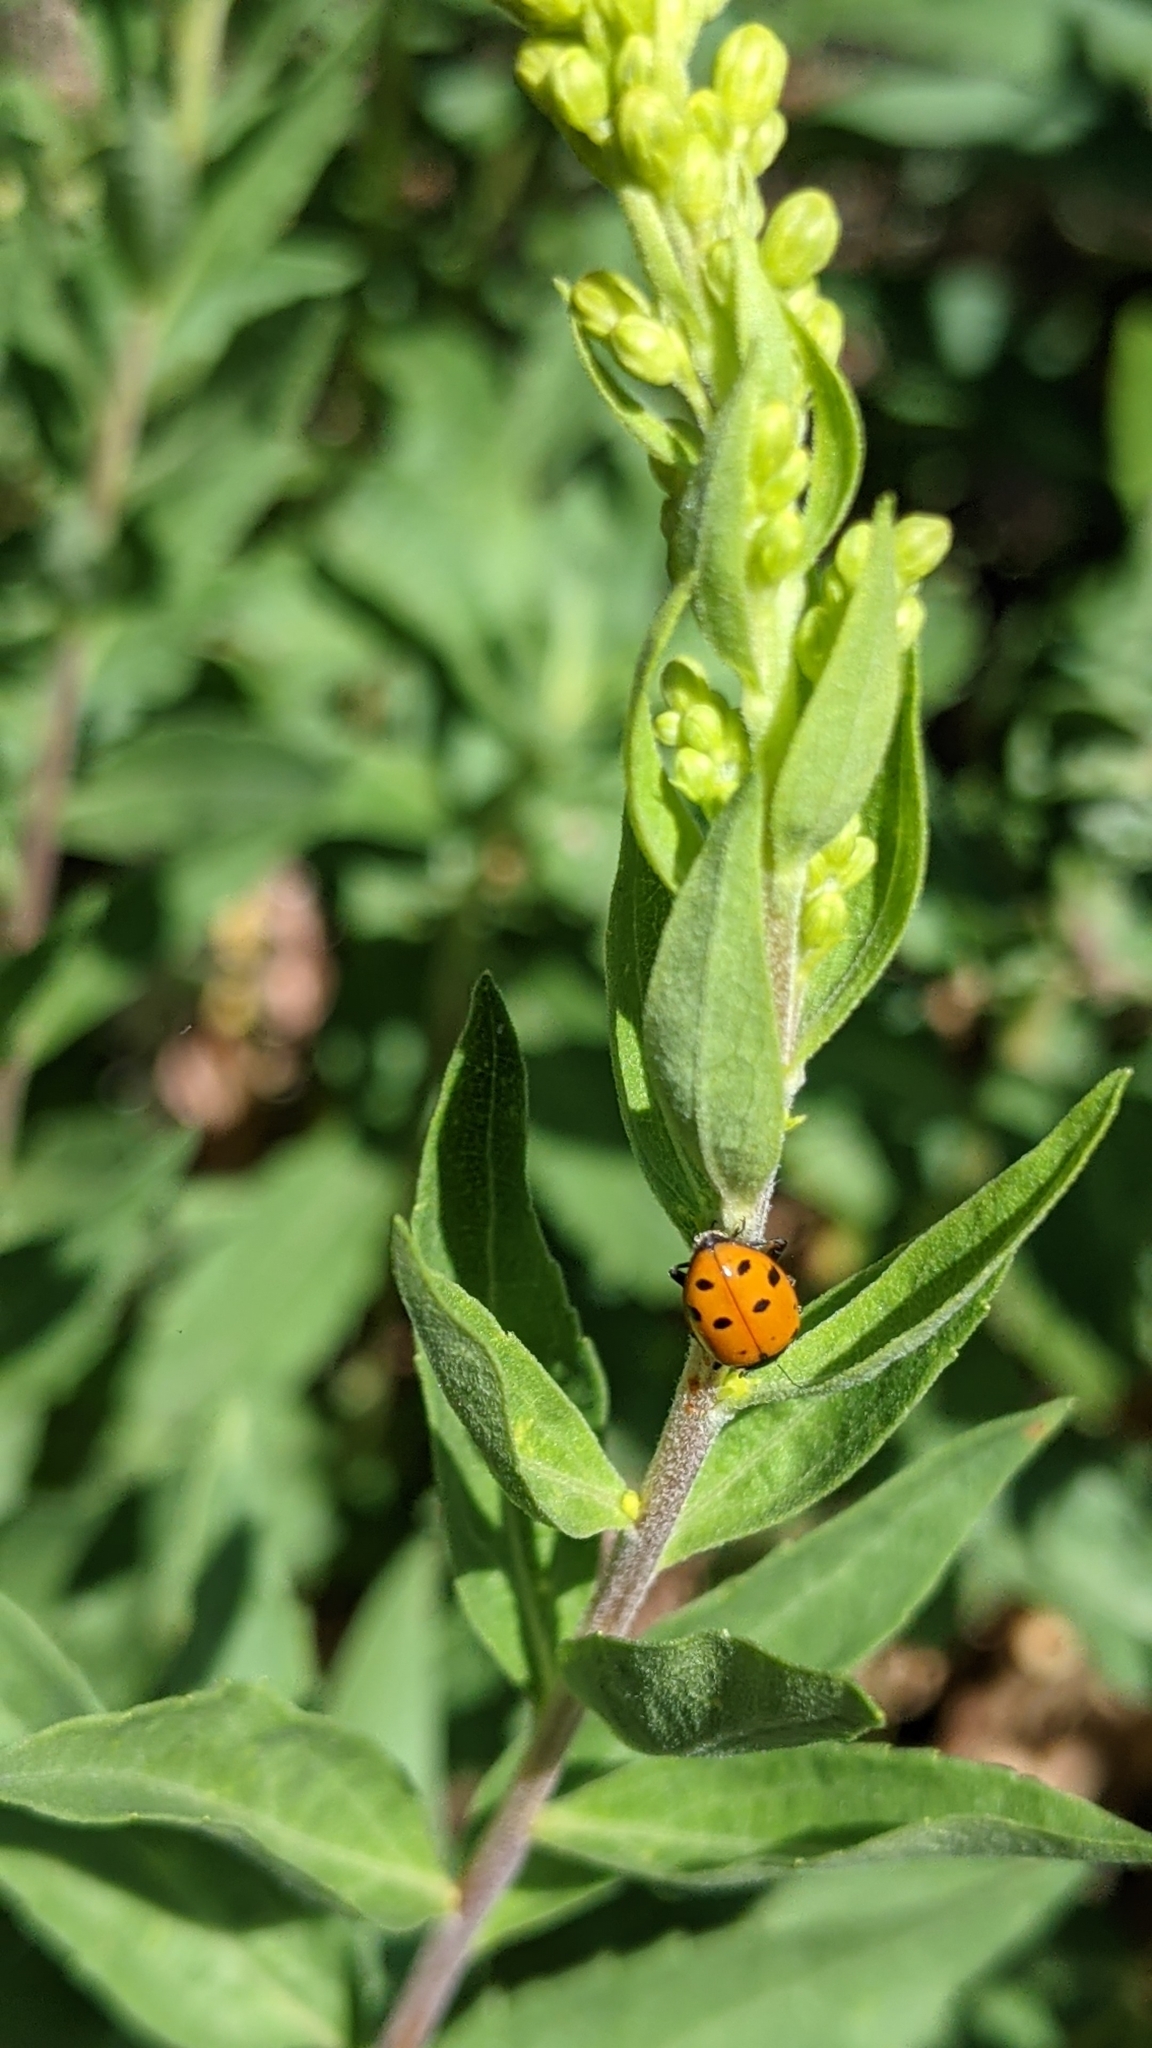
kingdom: Animalia
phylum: Arthropoda
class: Insecta
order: Coleoptera
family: Coccinellidae
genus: Hippodamia
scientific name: Hippodamia convergens
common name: Convergent lady beetle
